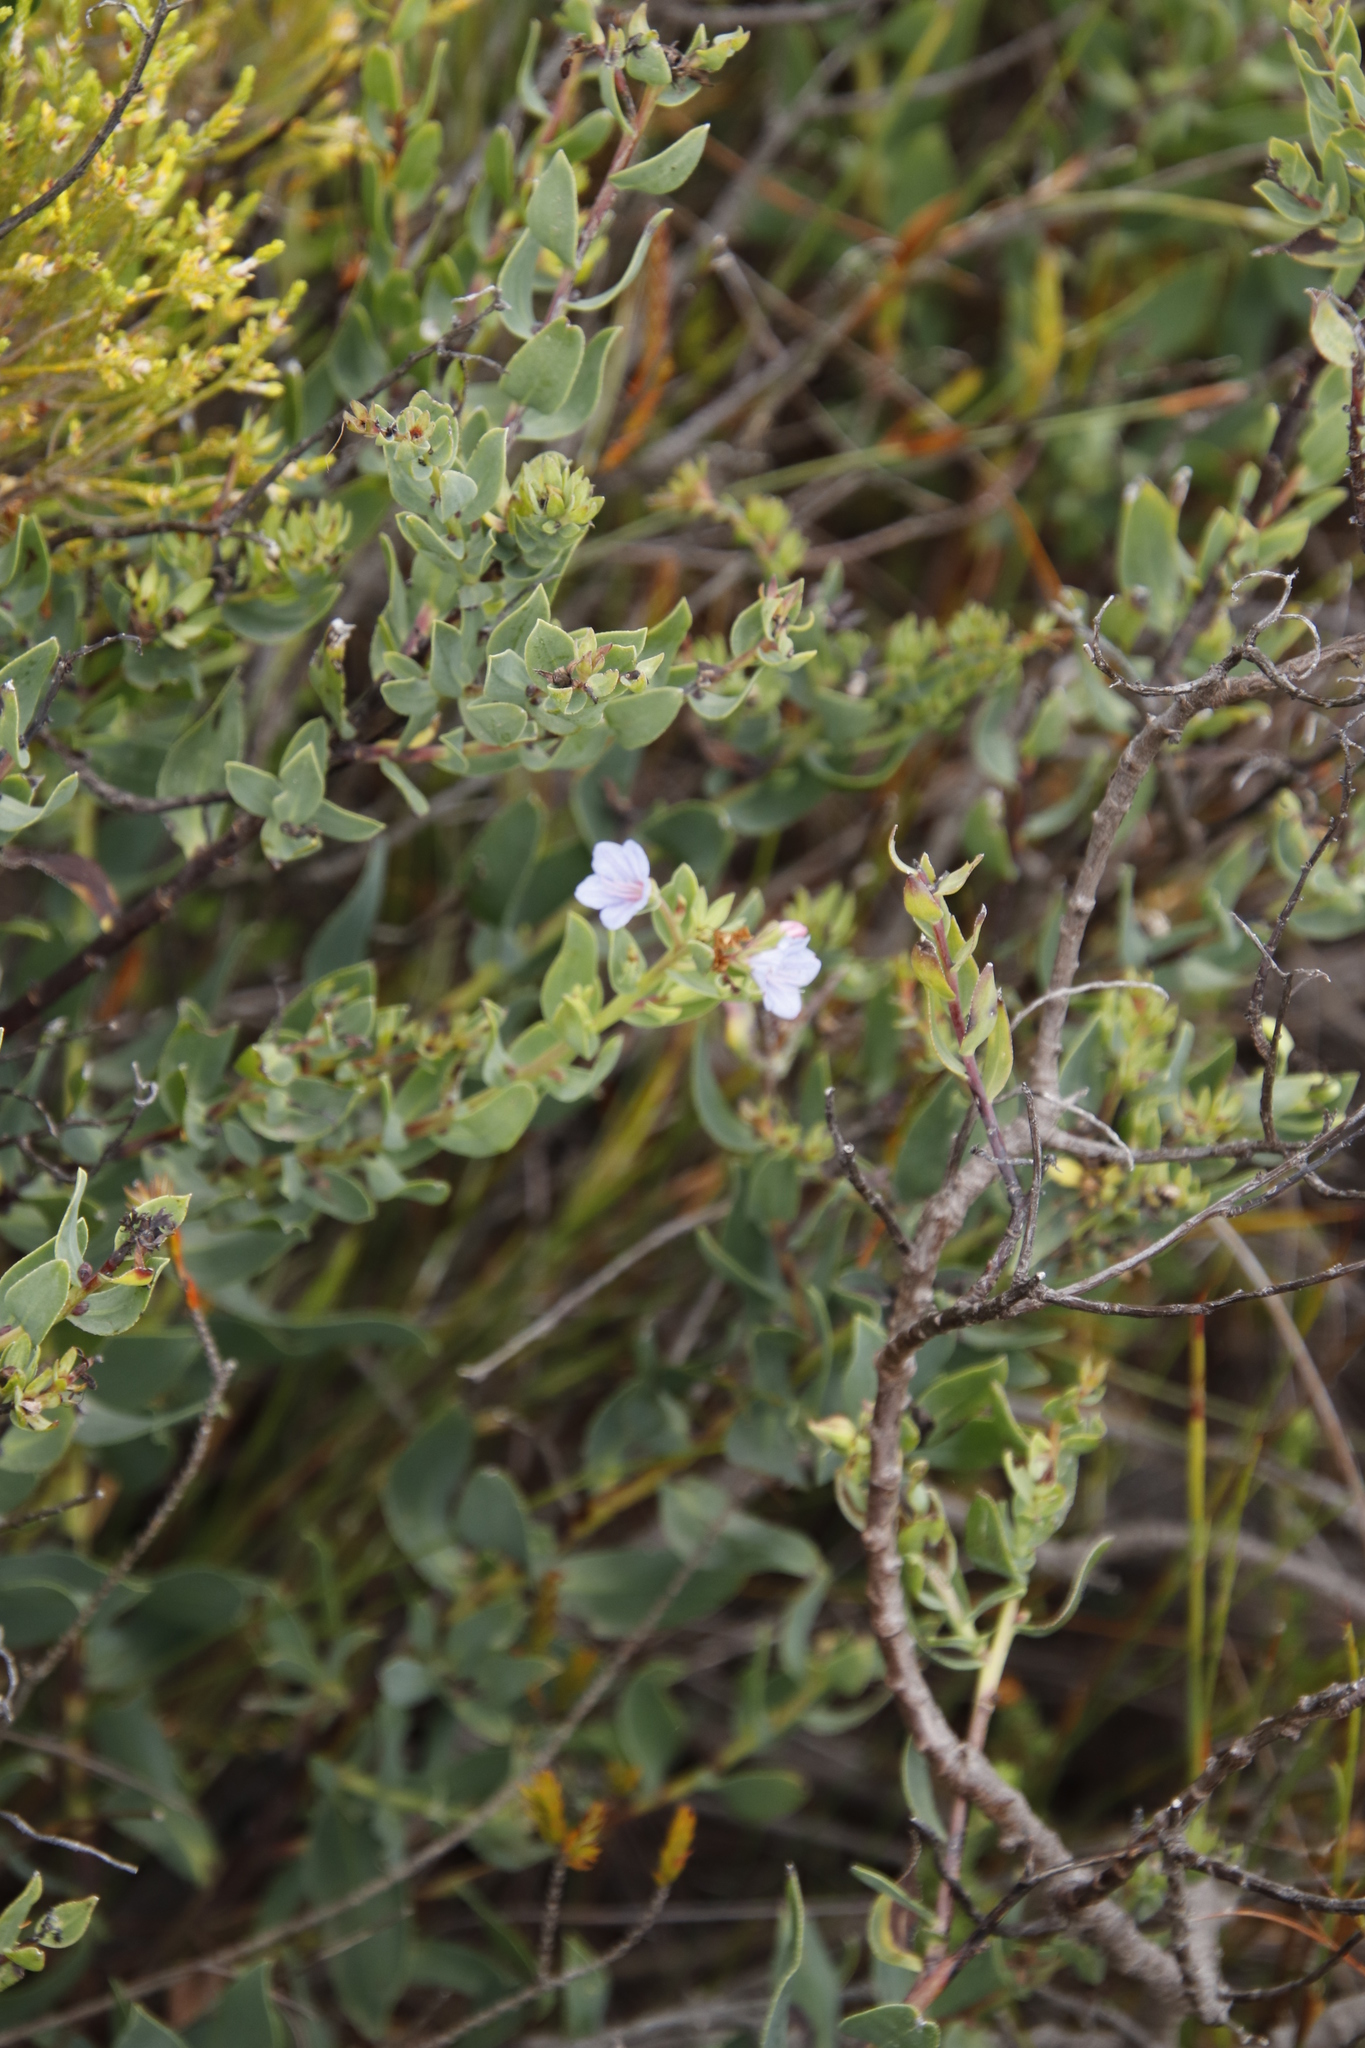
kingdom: Plantae
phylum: Tracheophyta
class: Magnoliopsida
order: Boraginales
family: Boraginaceae
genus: Lobostemon
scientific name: Lobostemon glaucophyllus
